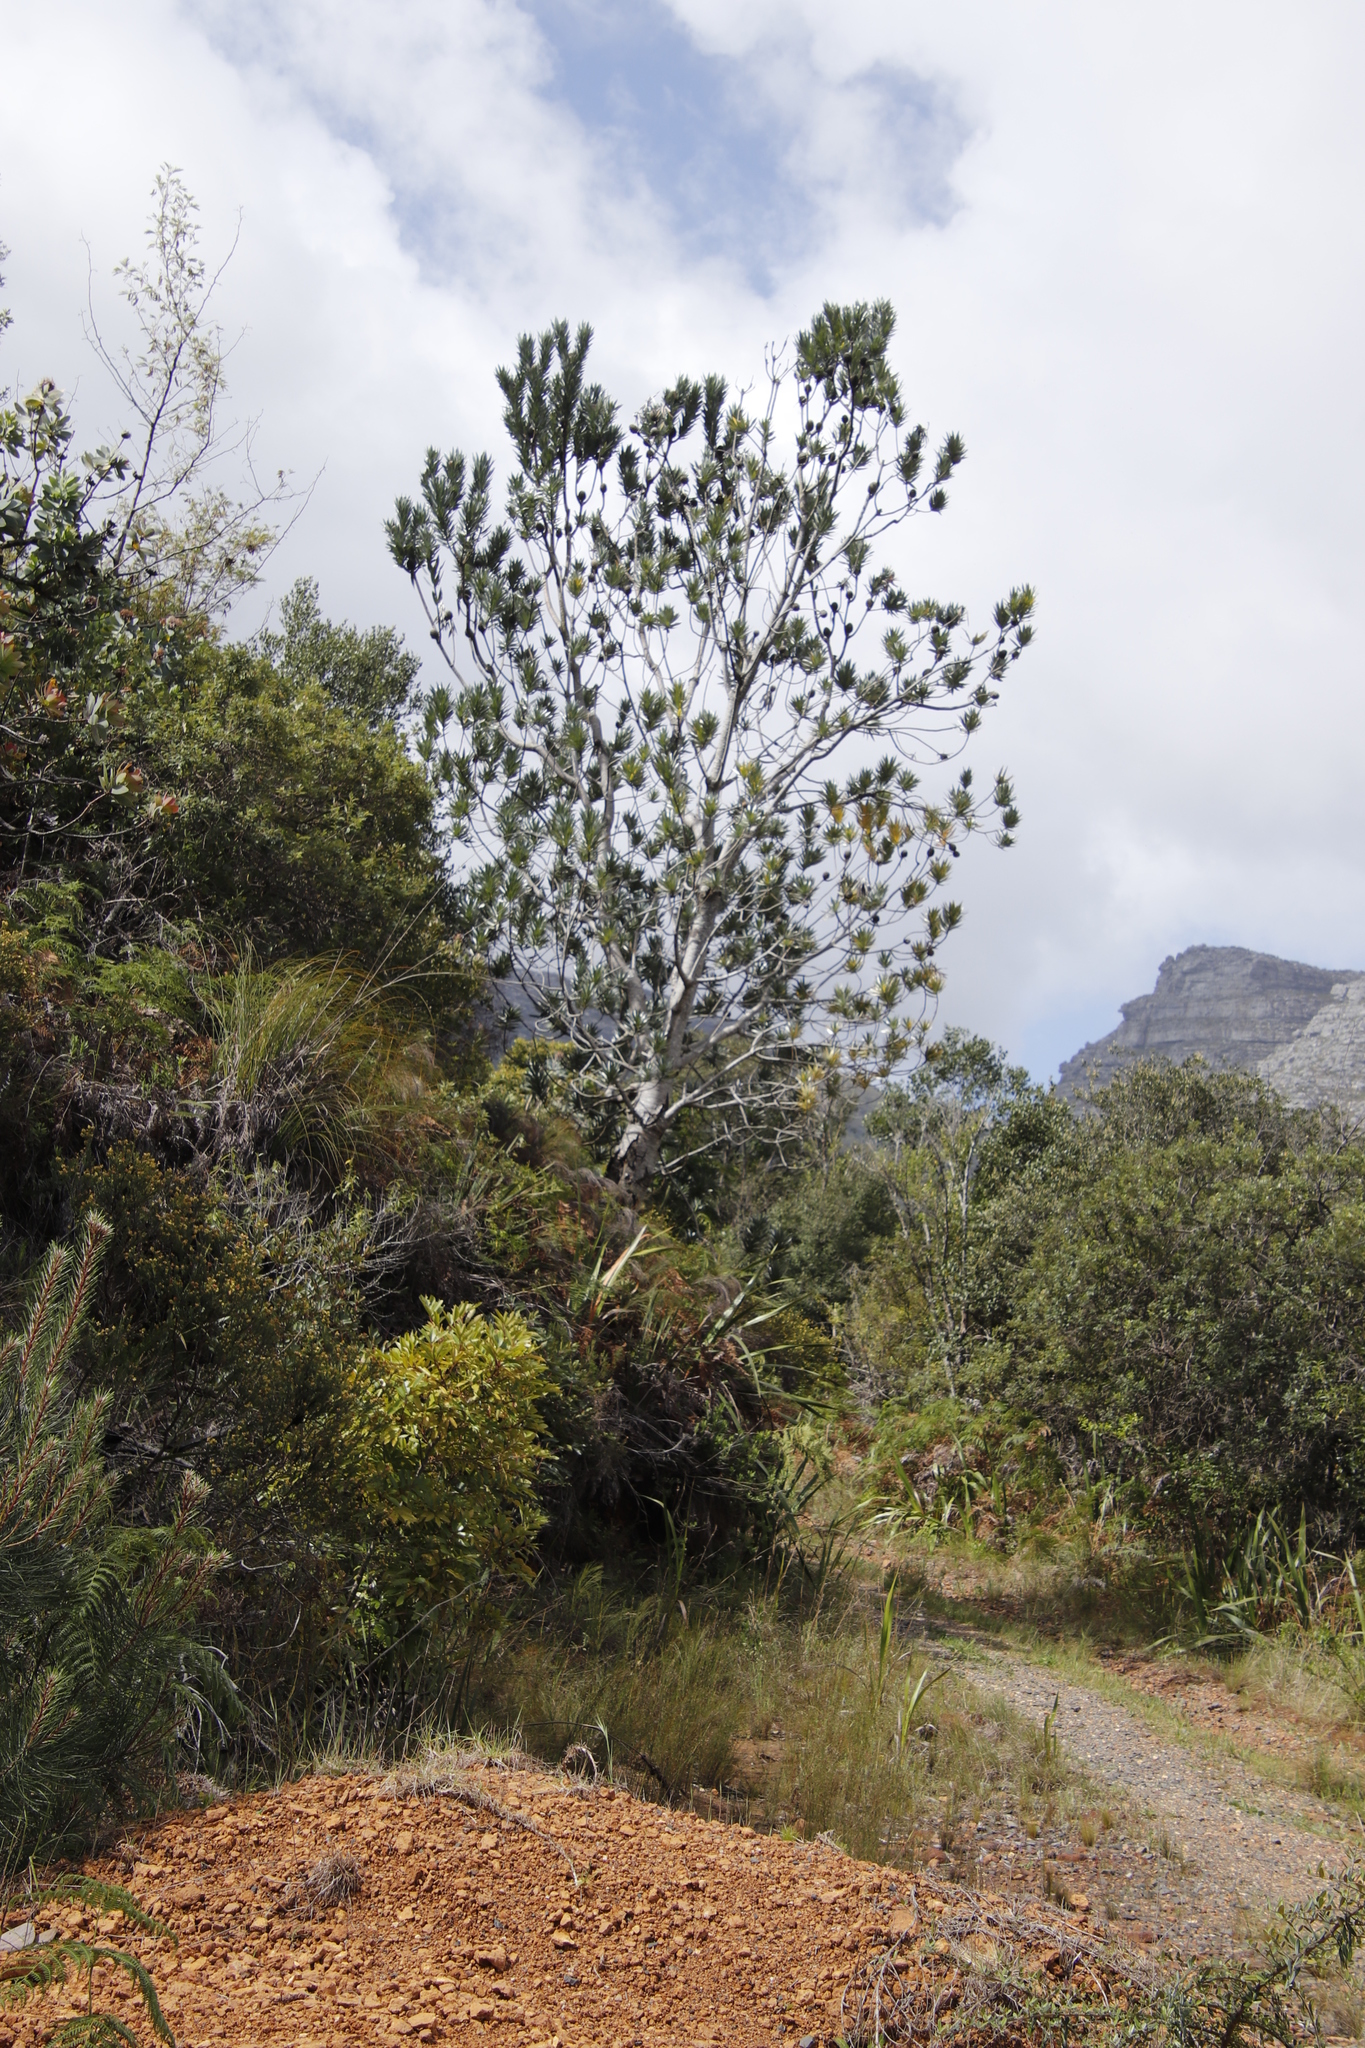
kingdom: Plantae
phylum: Tracheophyta
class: Magnoliopsida
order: Proteales
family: Proteaceae
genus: Leucadendron
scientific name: Leucadendron argenteum
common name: Cape silver tree
